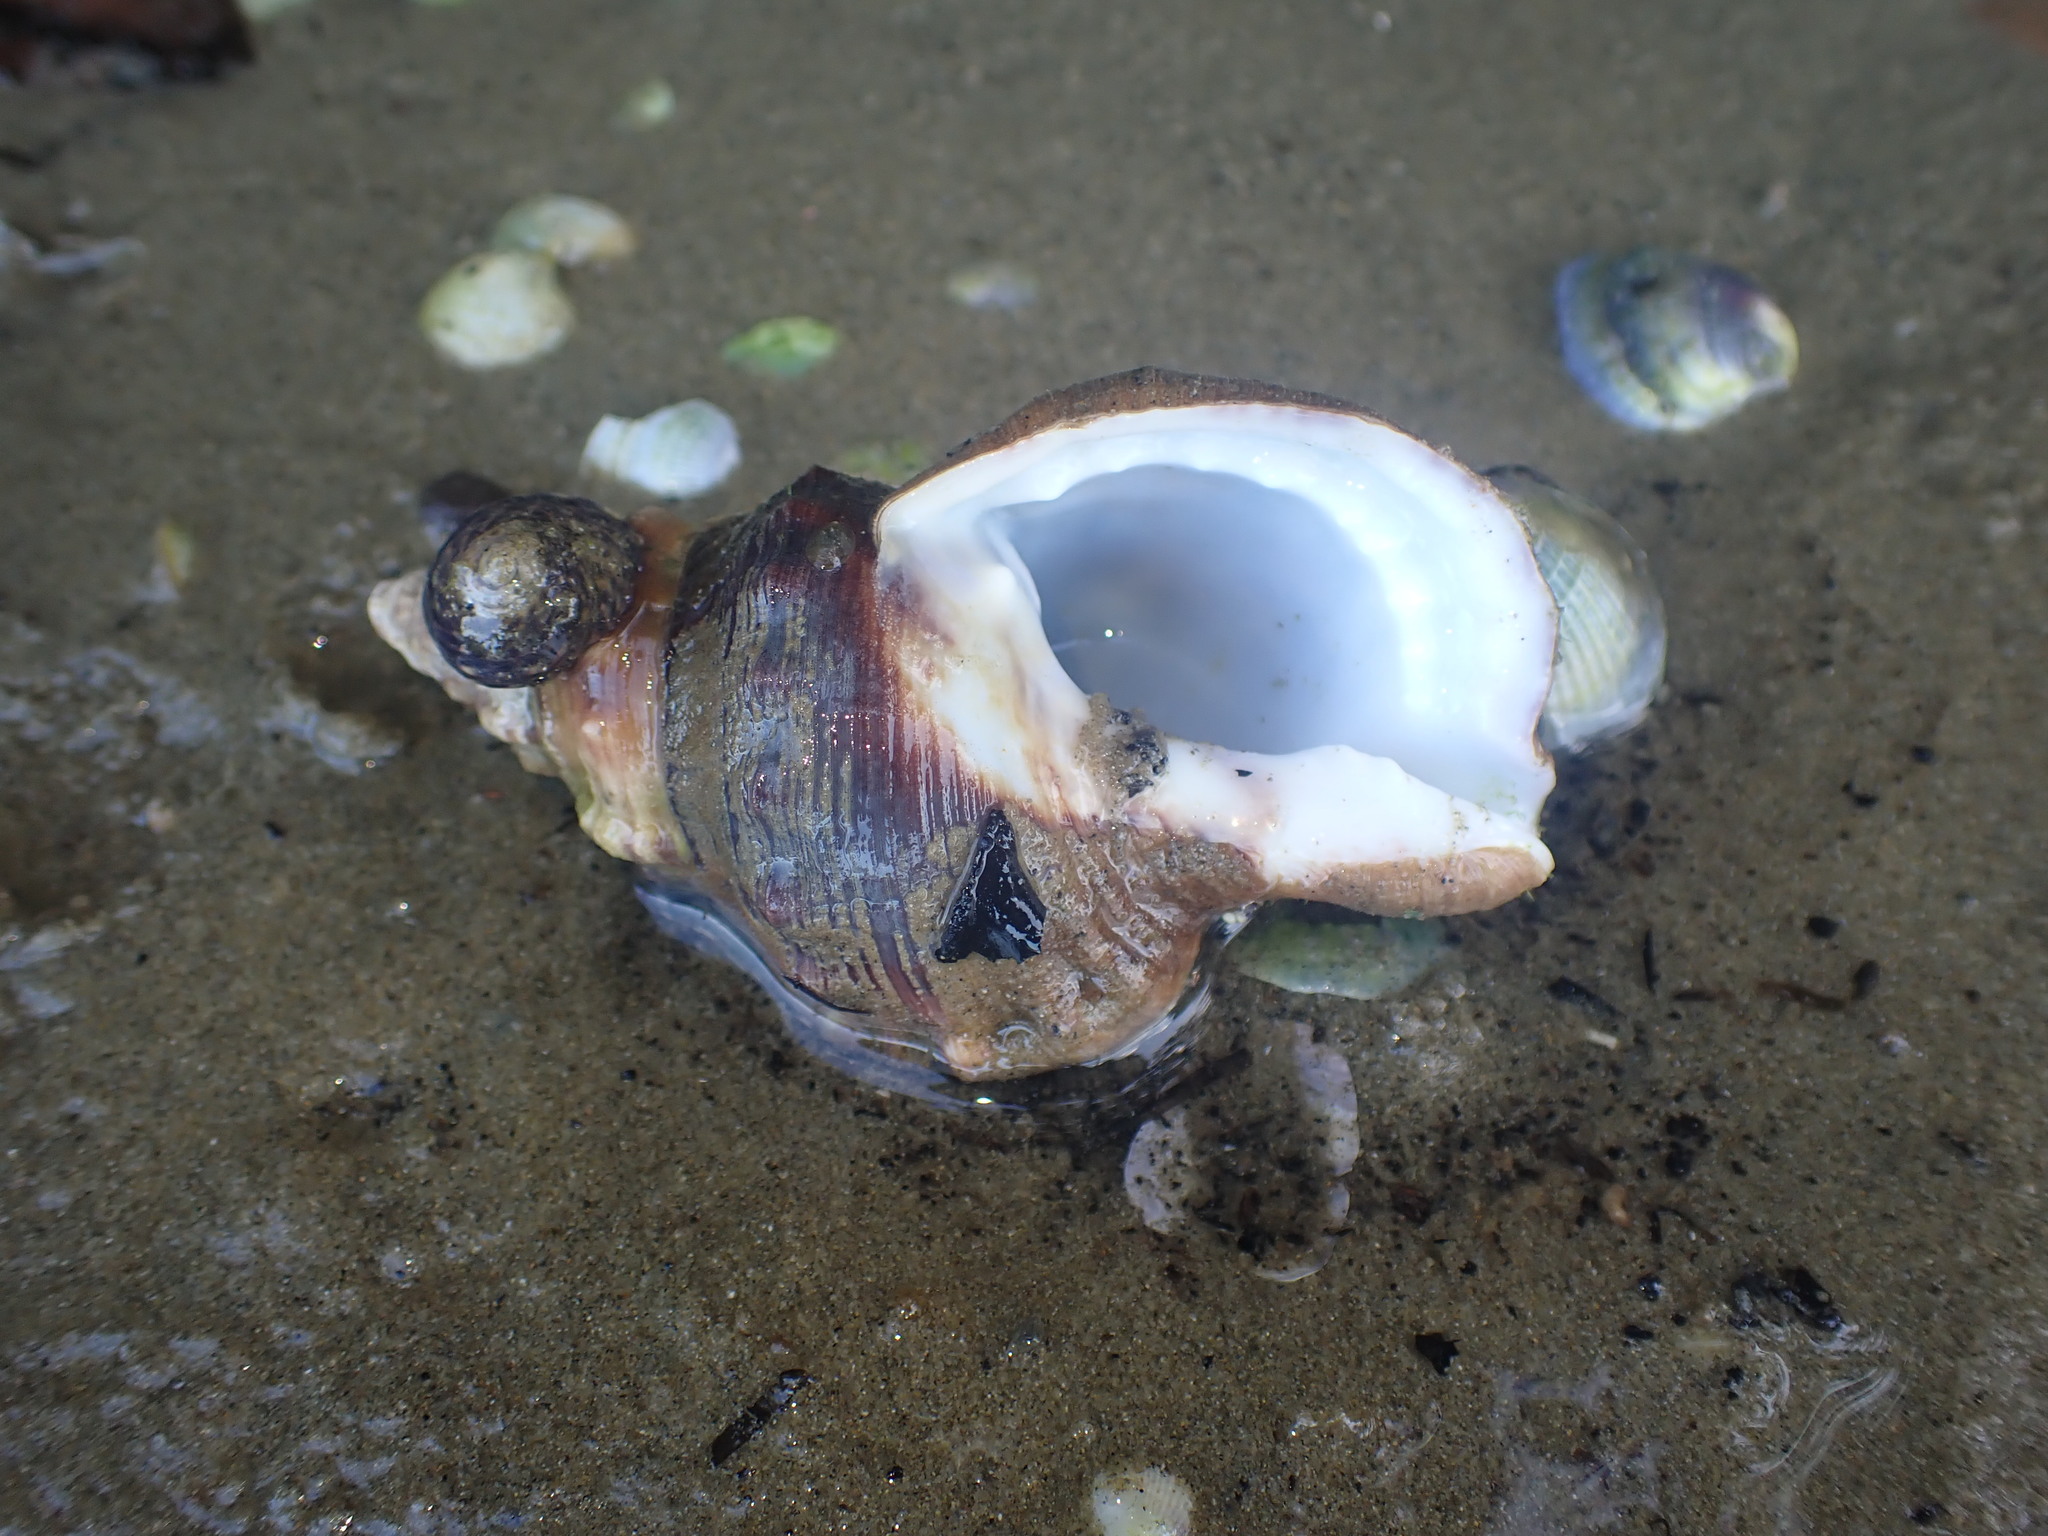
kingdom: Animalia
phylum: Mollusca
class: Gastropoda
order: Littorinimorpha
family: Ranellidae
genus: Ranella
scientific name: Ranella australasia
